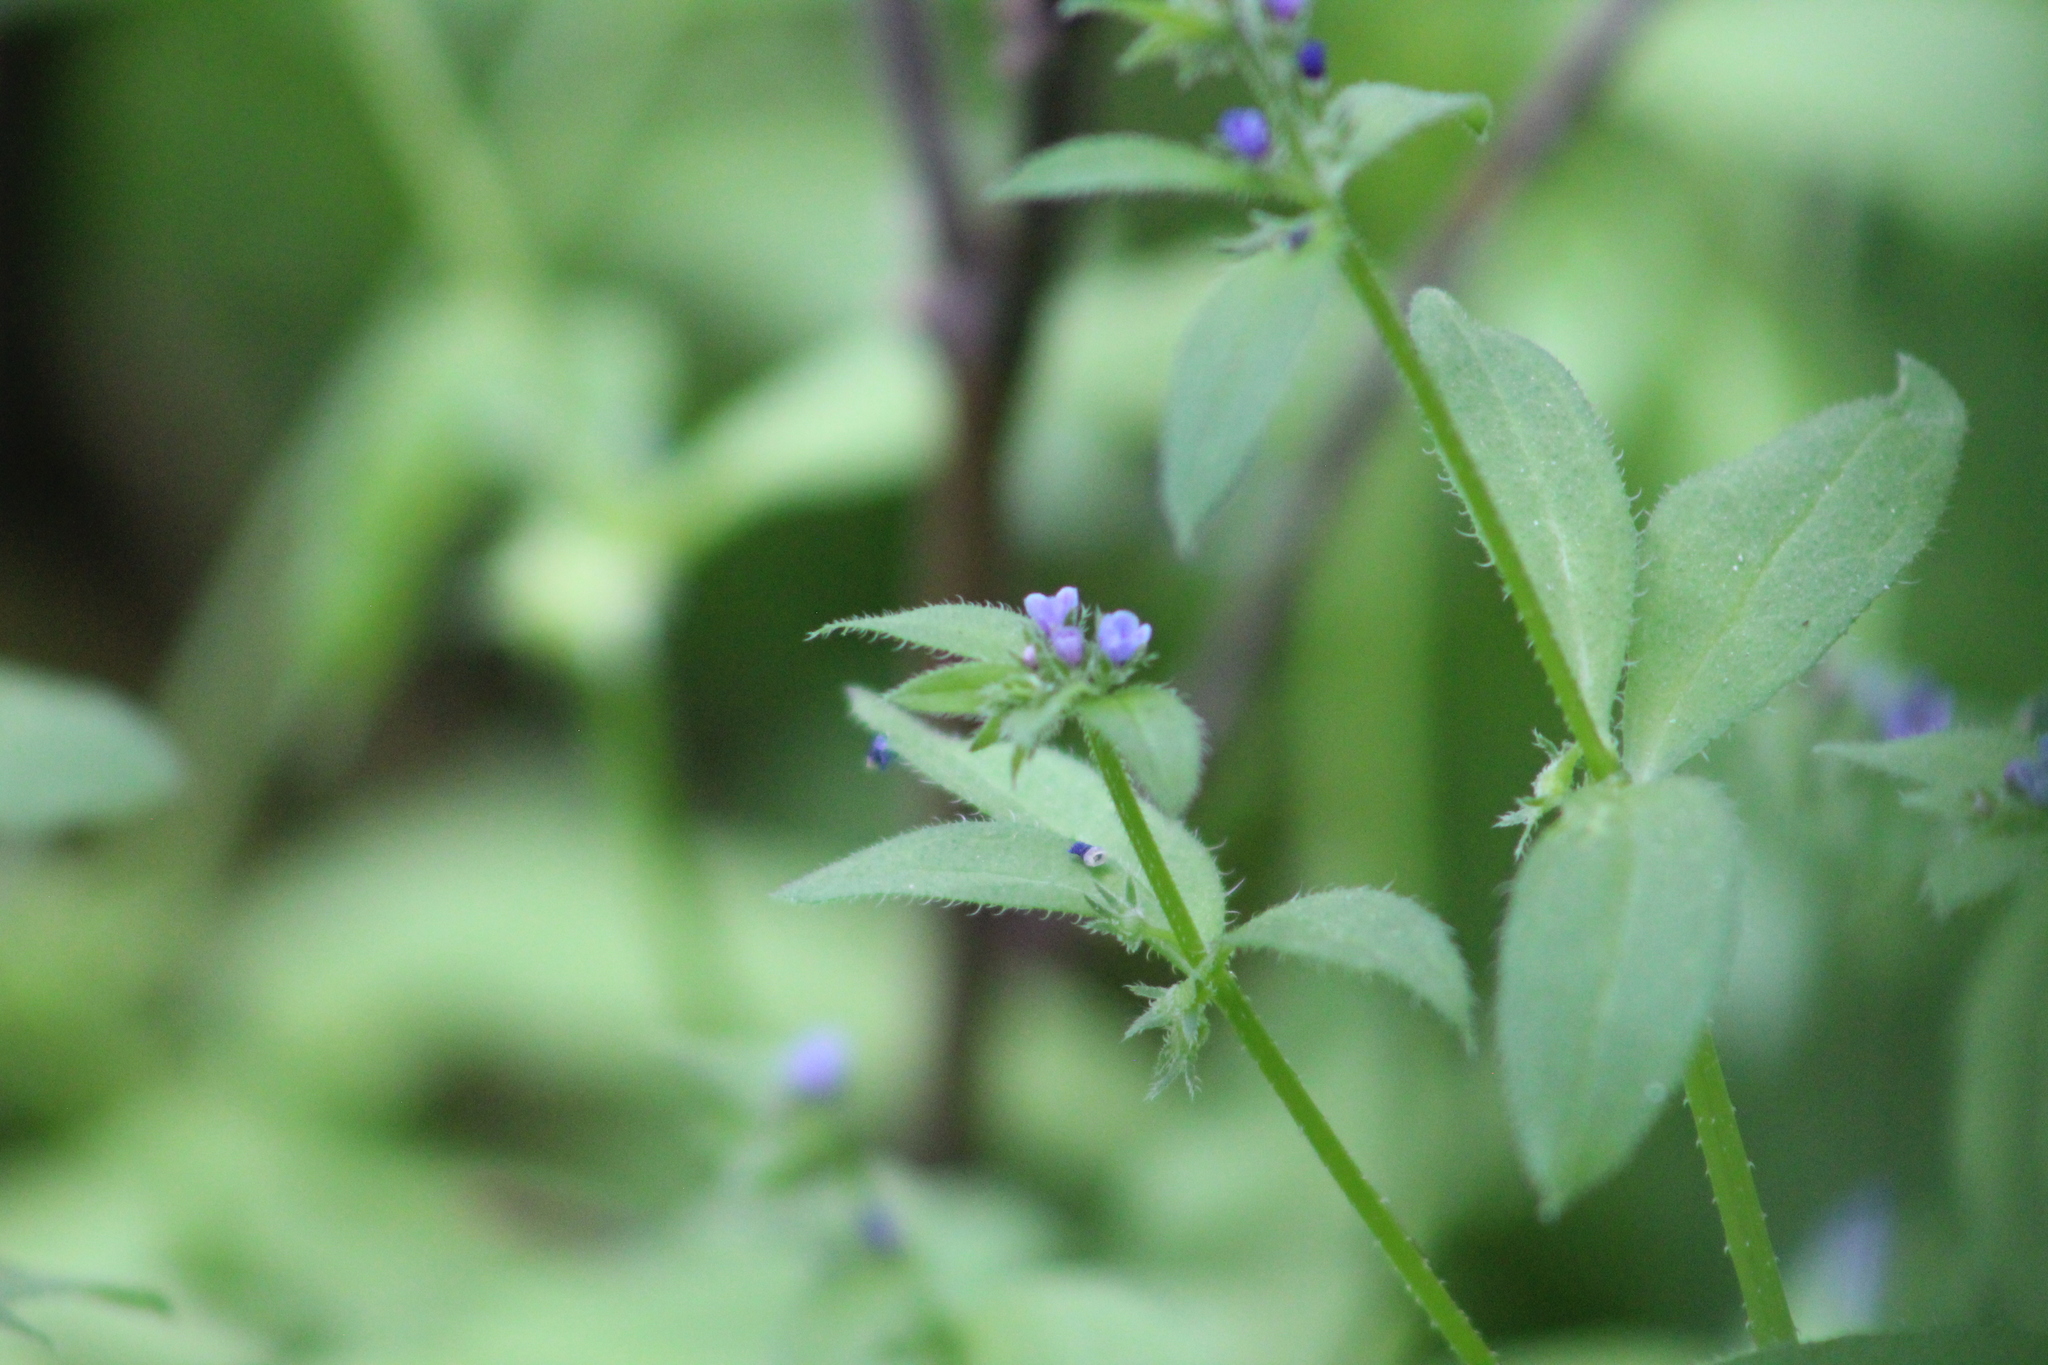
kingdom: Plantae
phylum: Tracheophyta
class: Magnoliopsida
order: Boraginales
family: Boraginaceae
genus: Asperugo
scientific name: Asperugo procumbens
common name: Madwort
